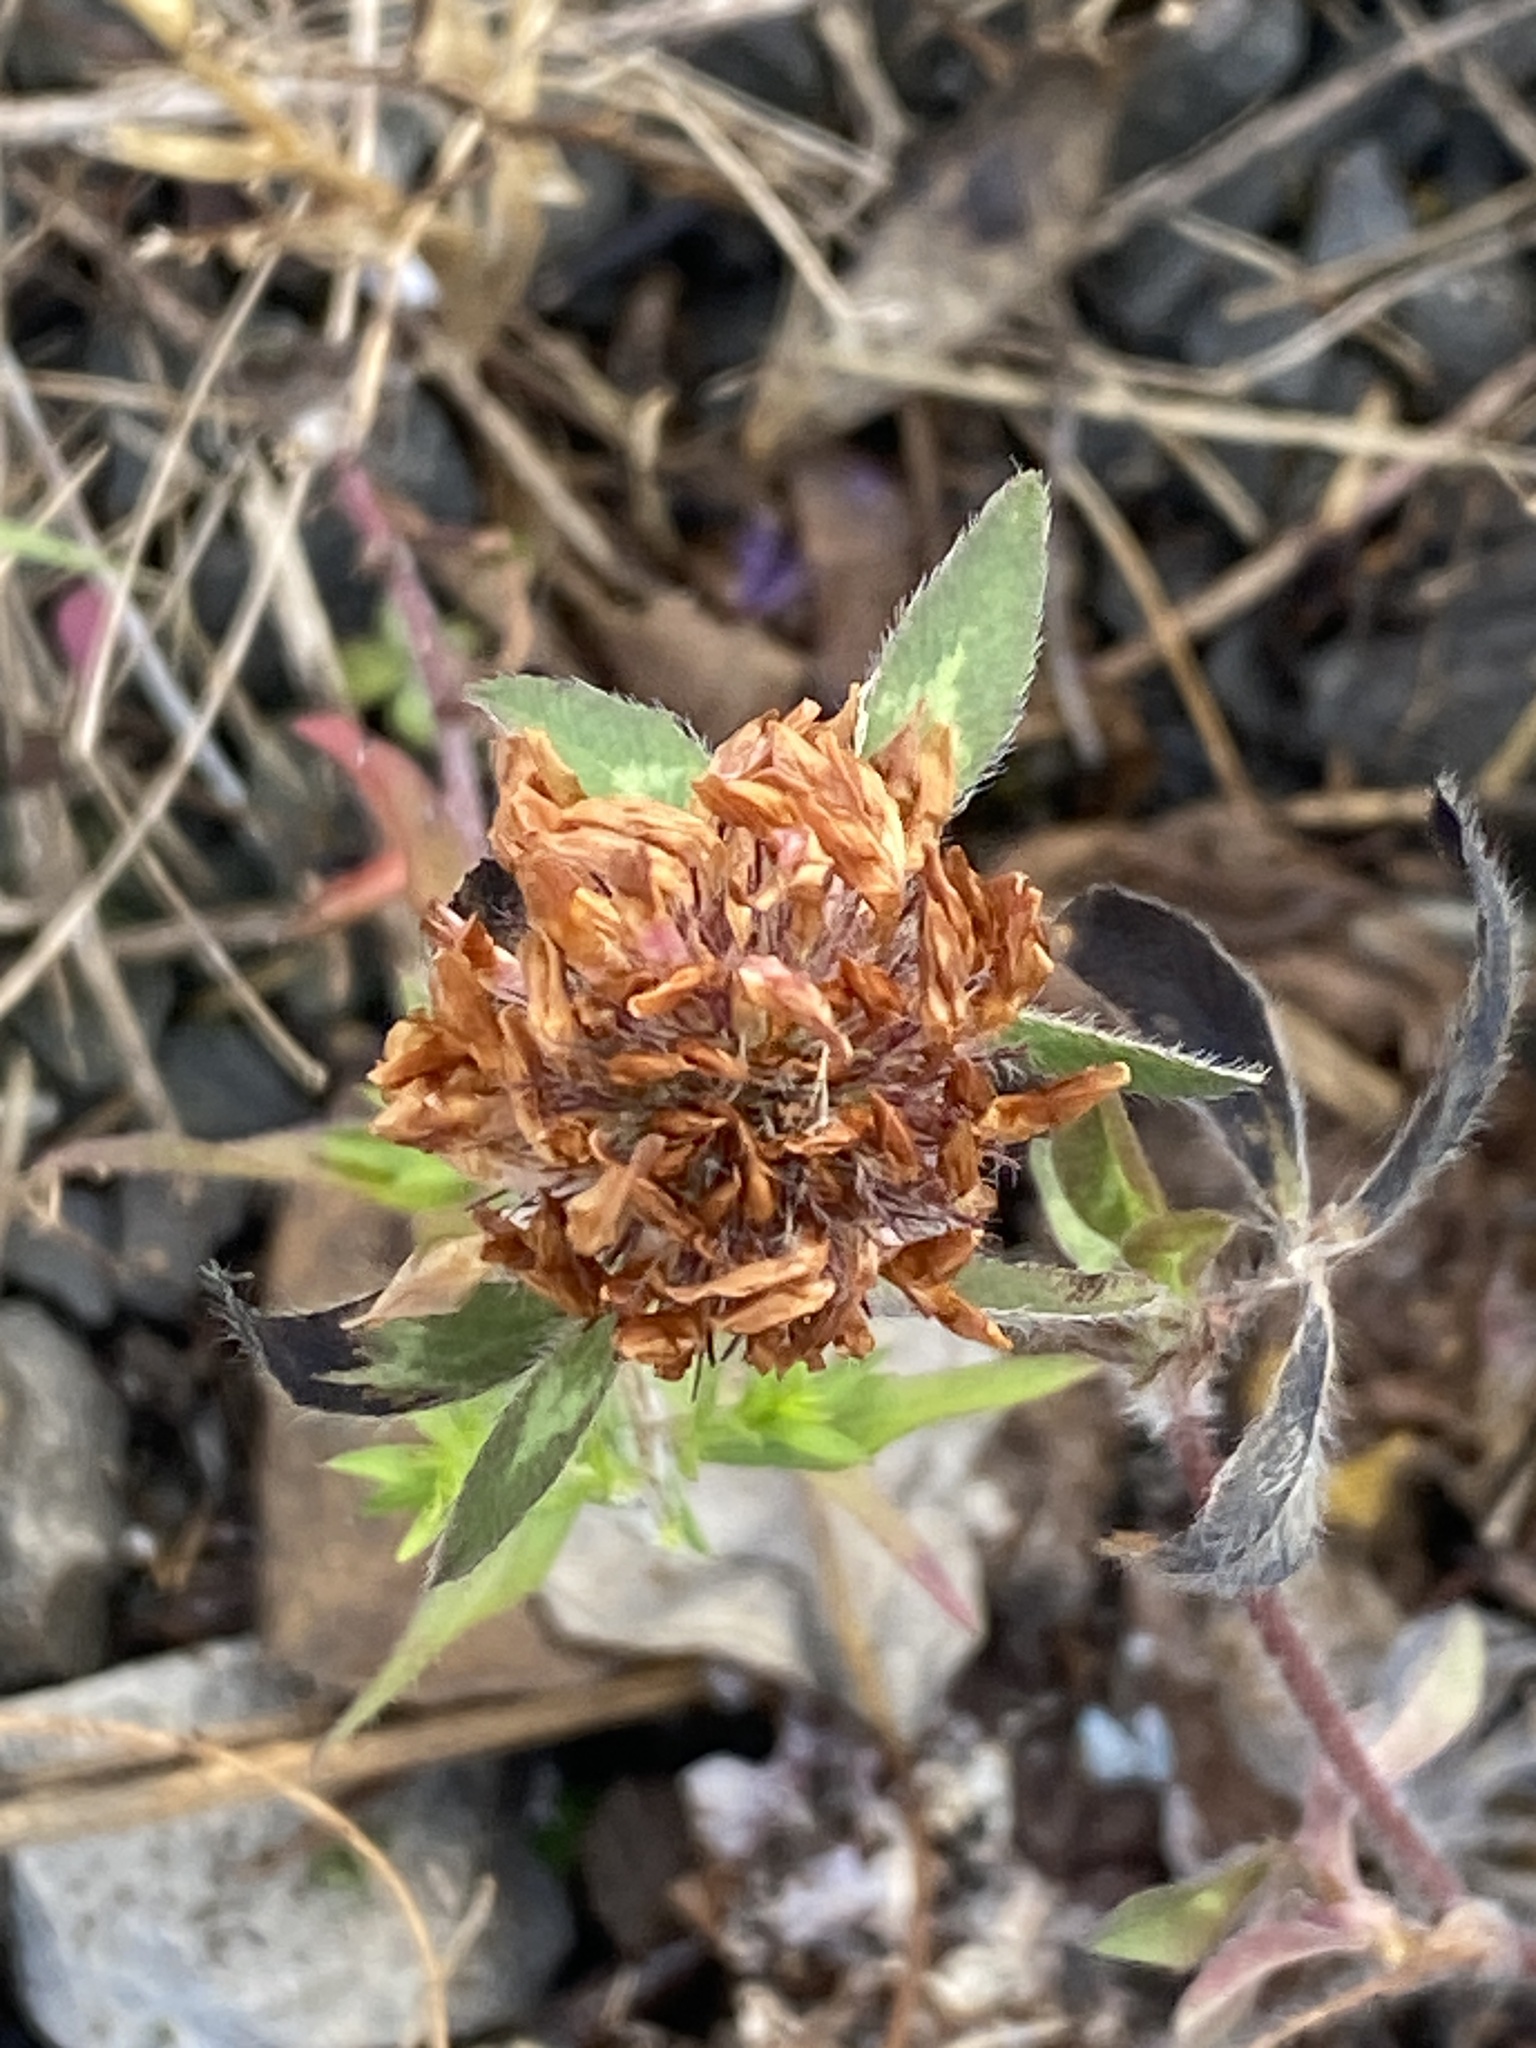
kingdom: Plantae
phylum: Tracheophyta
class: Magnoliopsida
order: Fabales
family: Fabaceae
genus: Trifolium
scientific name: Trifolium pratense
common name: Red clover
